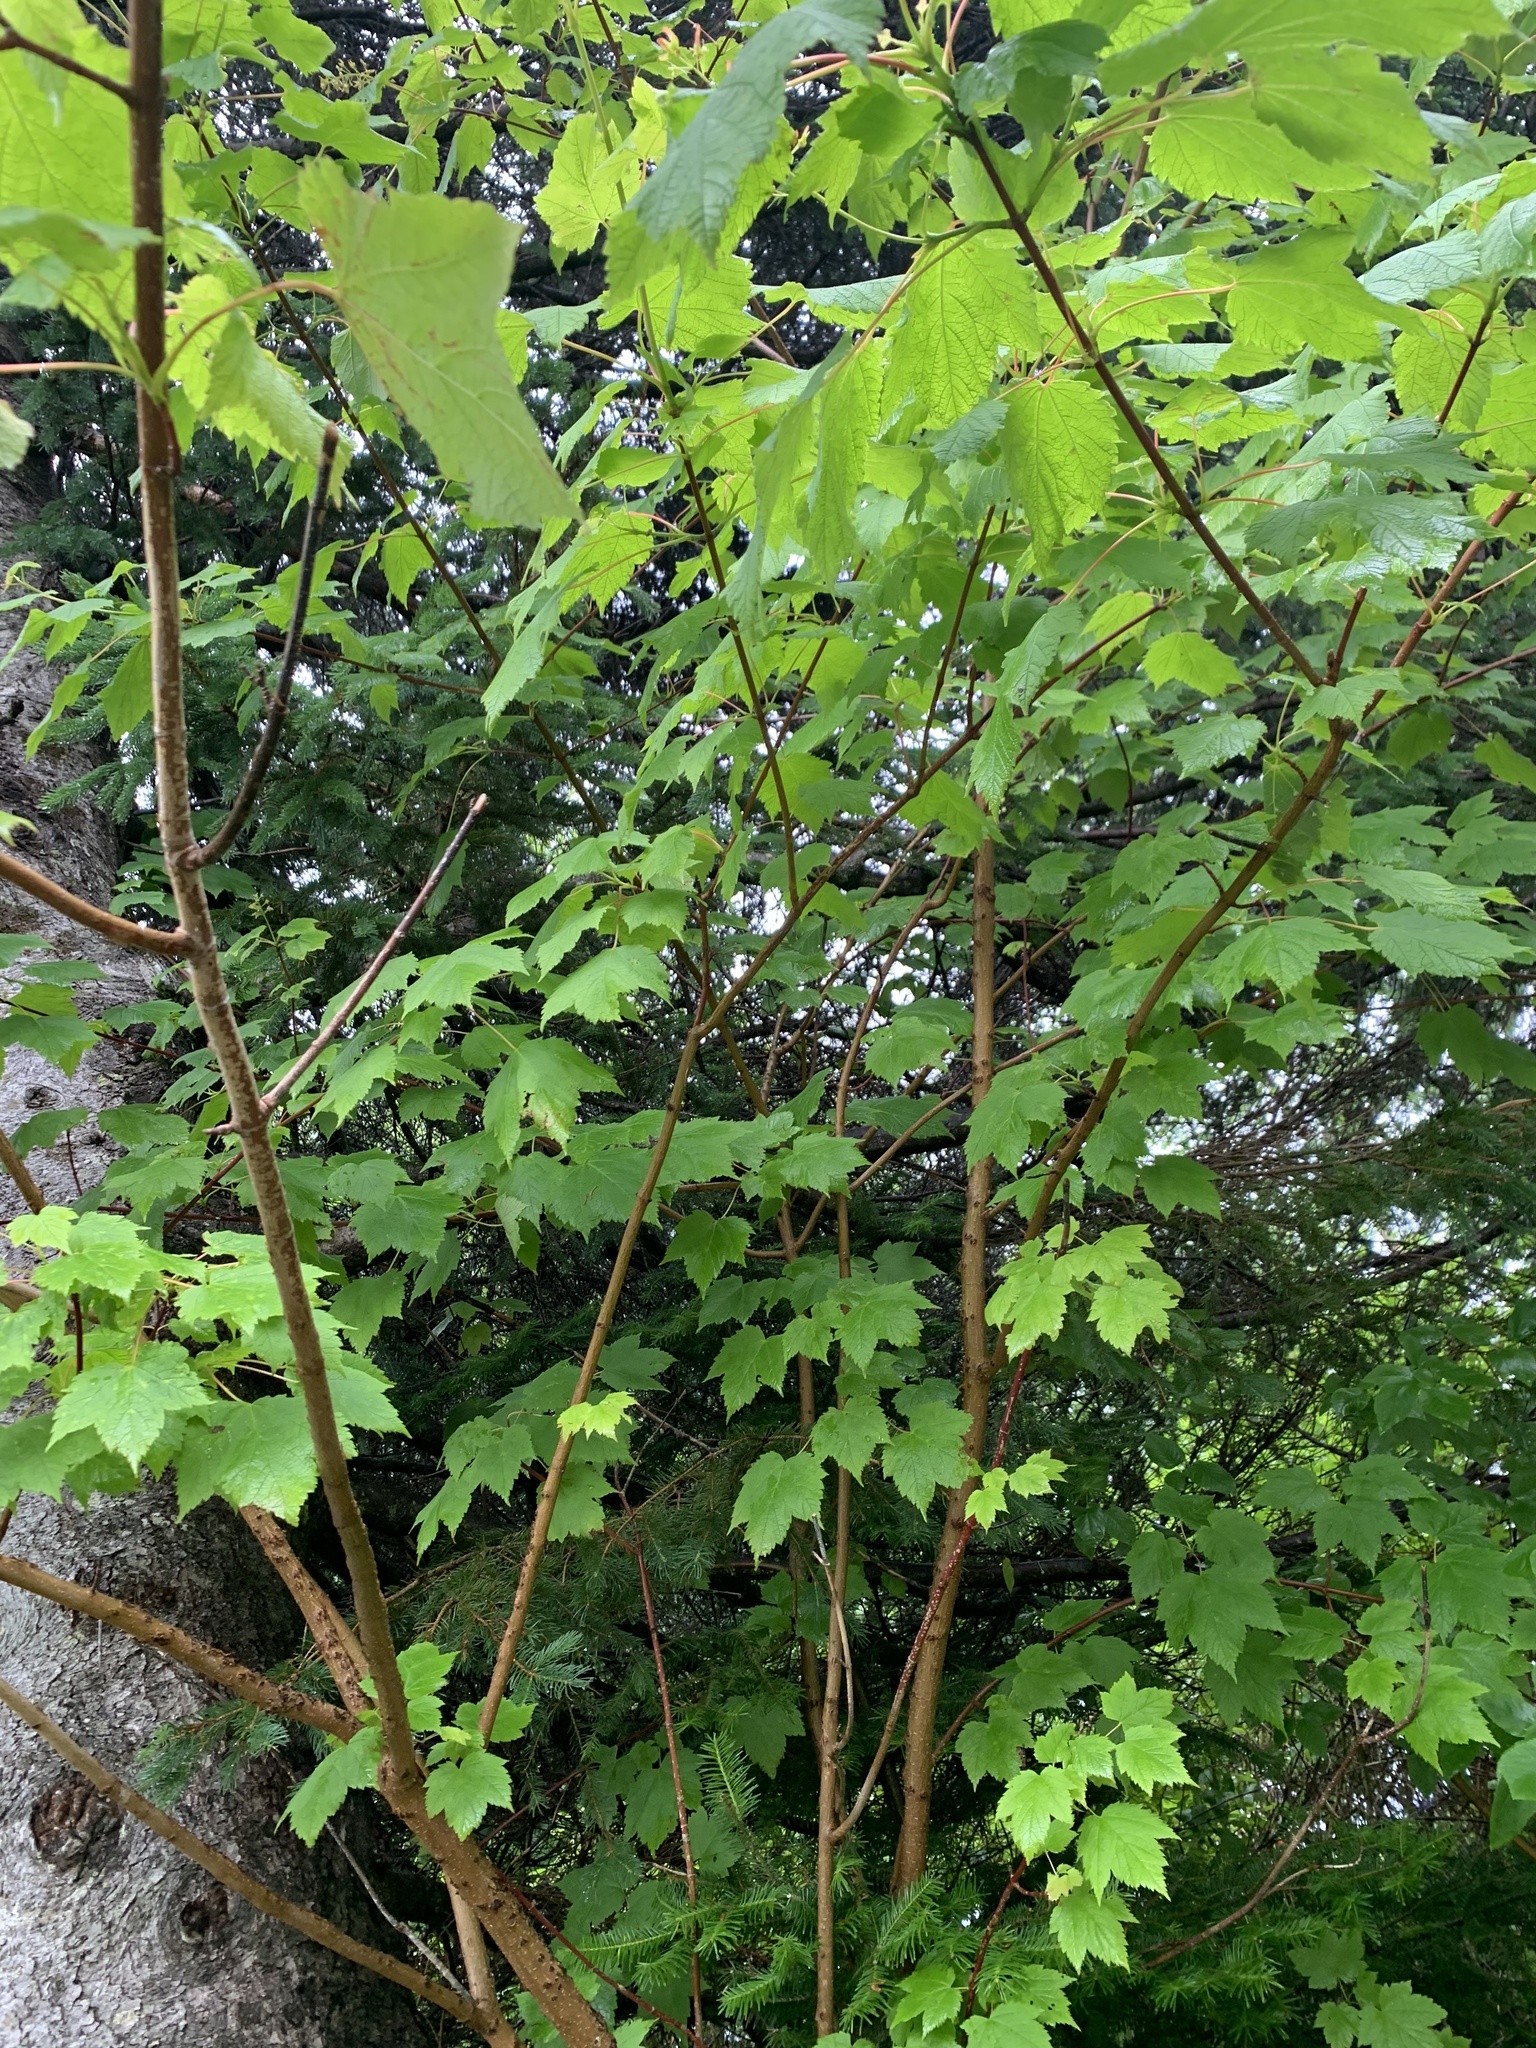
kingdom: Plantae
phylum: Tracheophyta
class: Magnoliopsida
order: Sapindales
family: Sapindaceae
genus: Acer
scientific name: Acer spicatum
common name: Mountain maple
